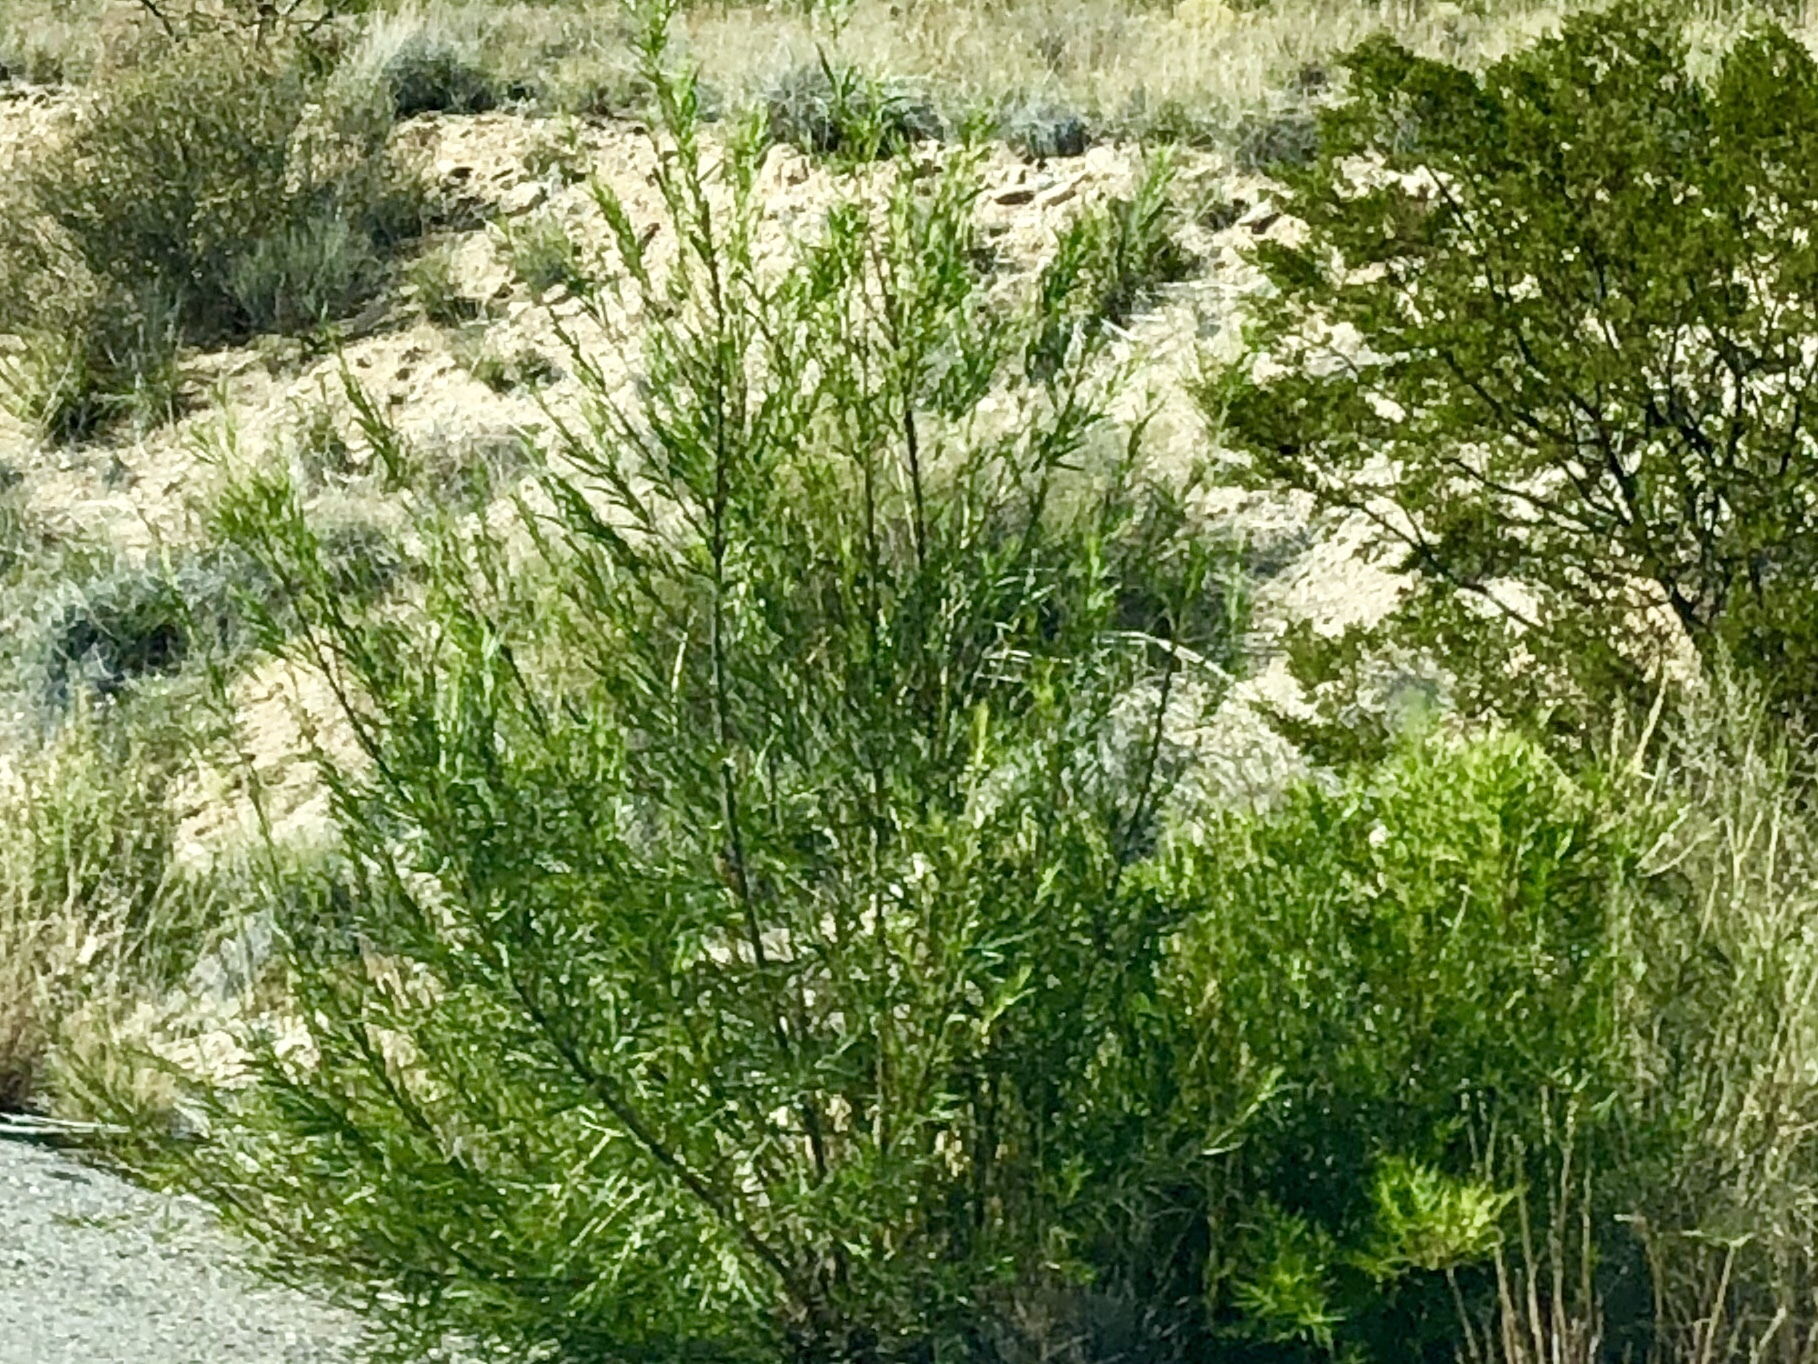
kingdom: Plantae
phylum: Tracheophyta
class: Magnoliopsida
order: Lamiales
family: Bignoniaceae
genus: Chilopsis
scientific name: Chilopsis linearis
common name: Desert-willow
